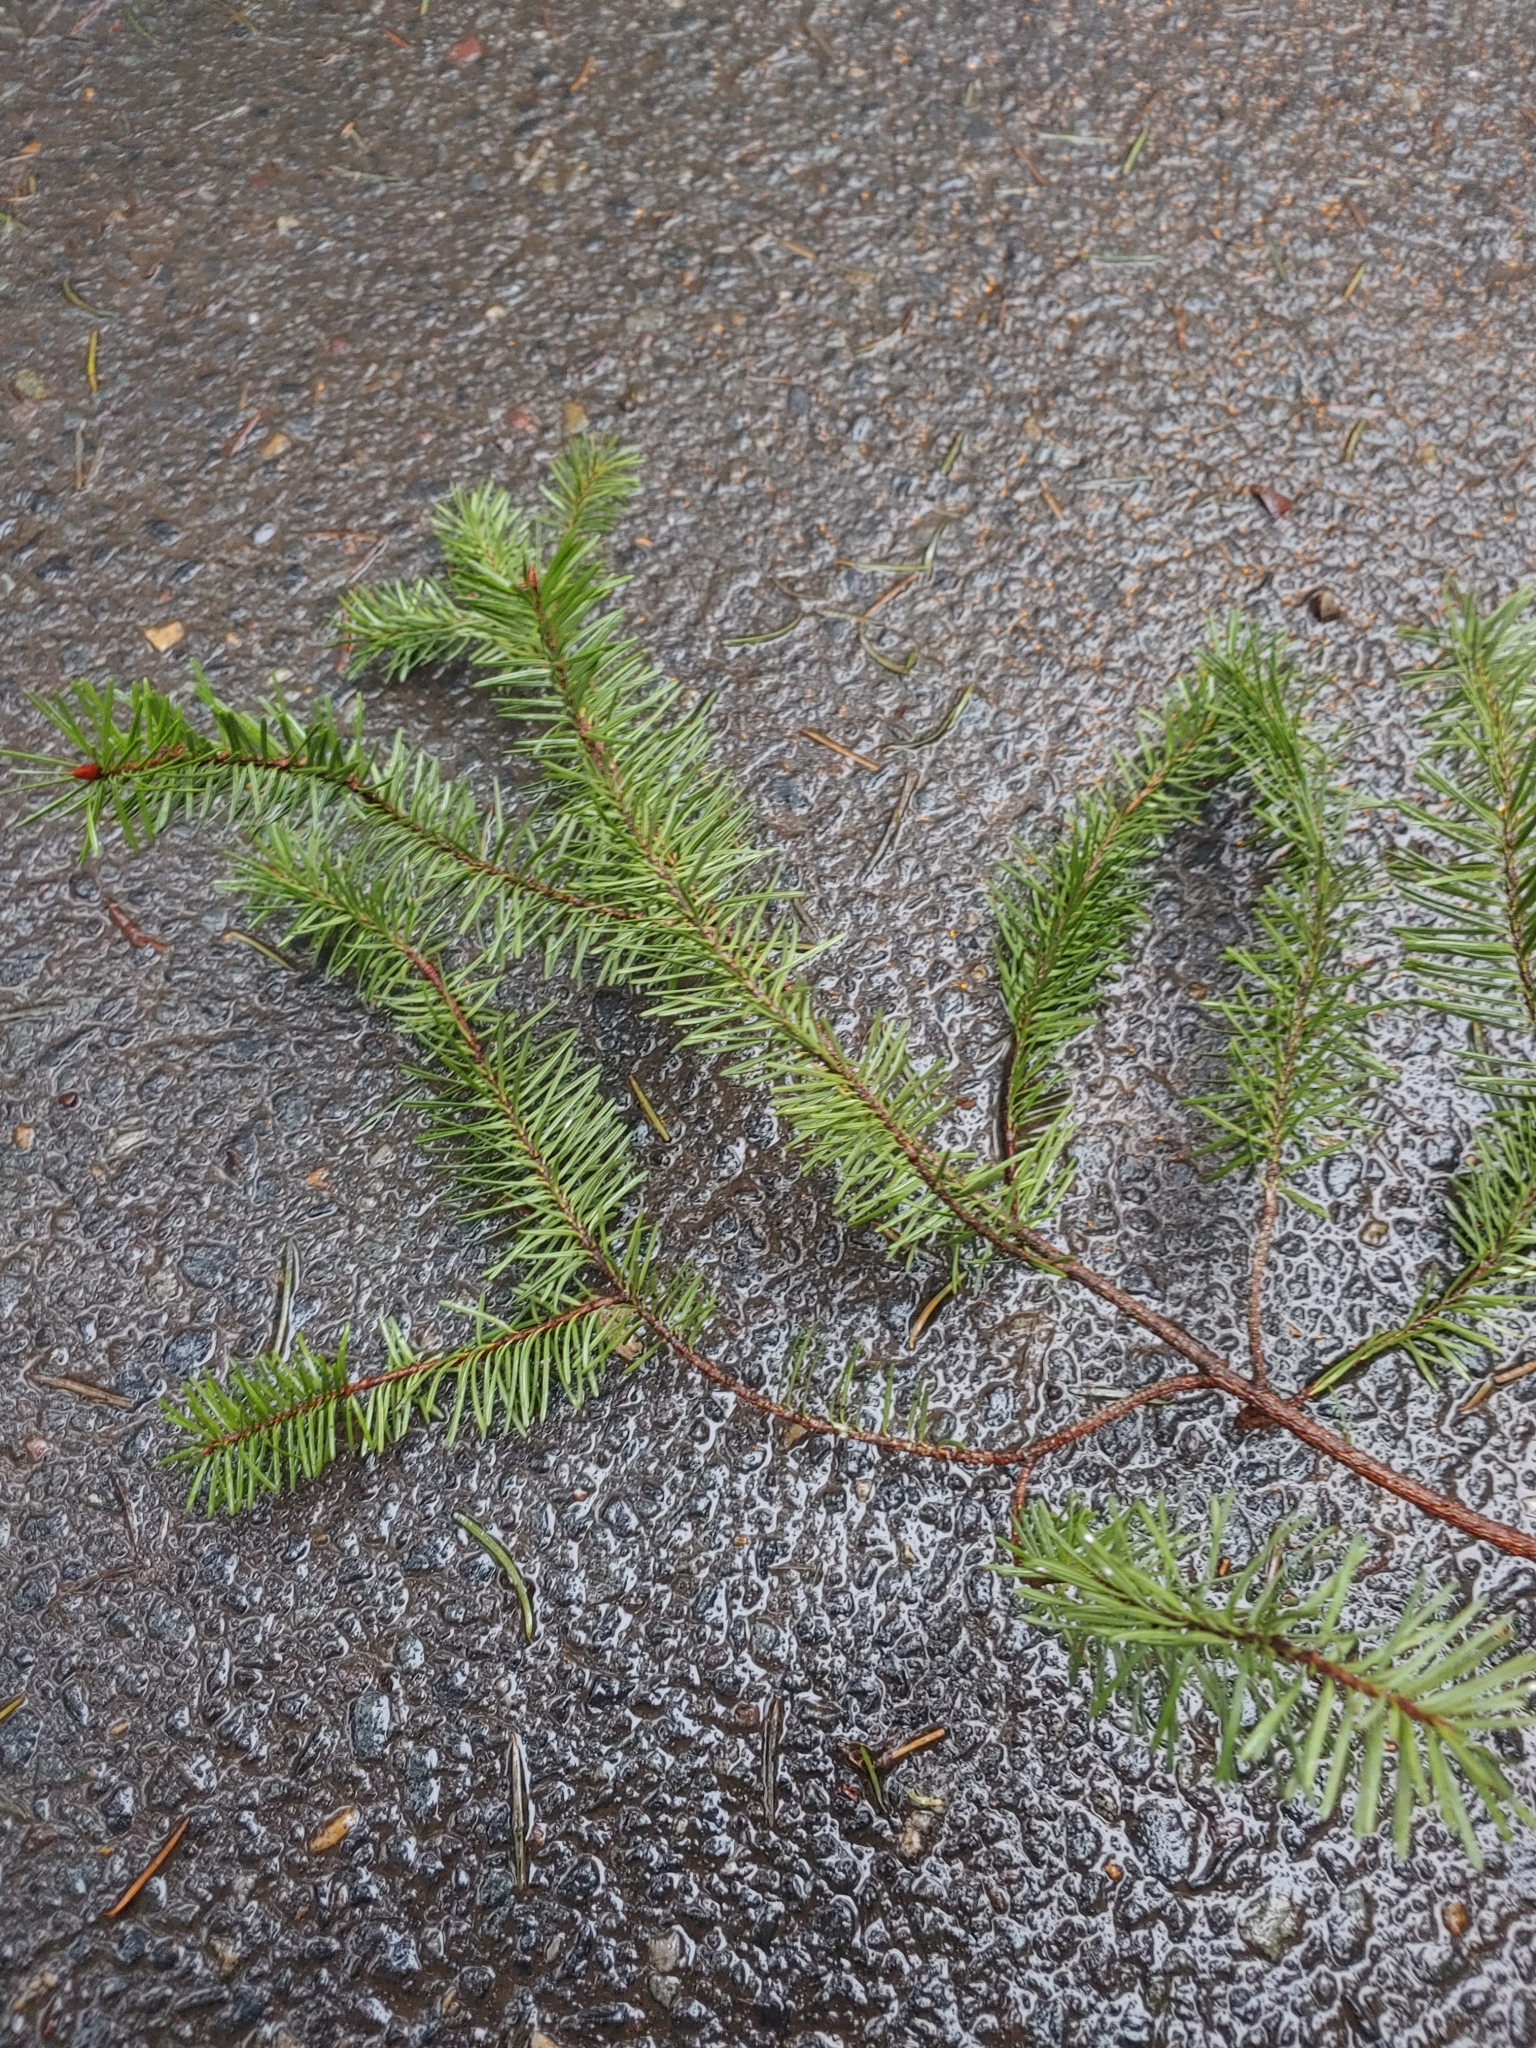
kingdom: Plantae
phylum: Tracheophyta
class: Pinopsida
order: Pinales
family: Pinaceae
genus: Pseudotsuga
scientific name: Pseudotsuga menziesii
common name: Douglas fir
